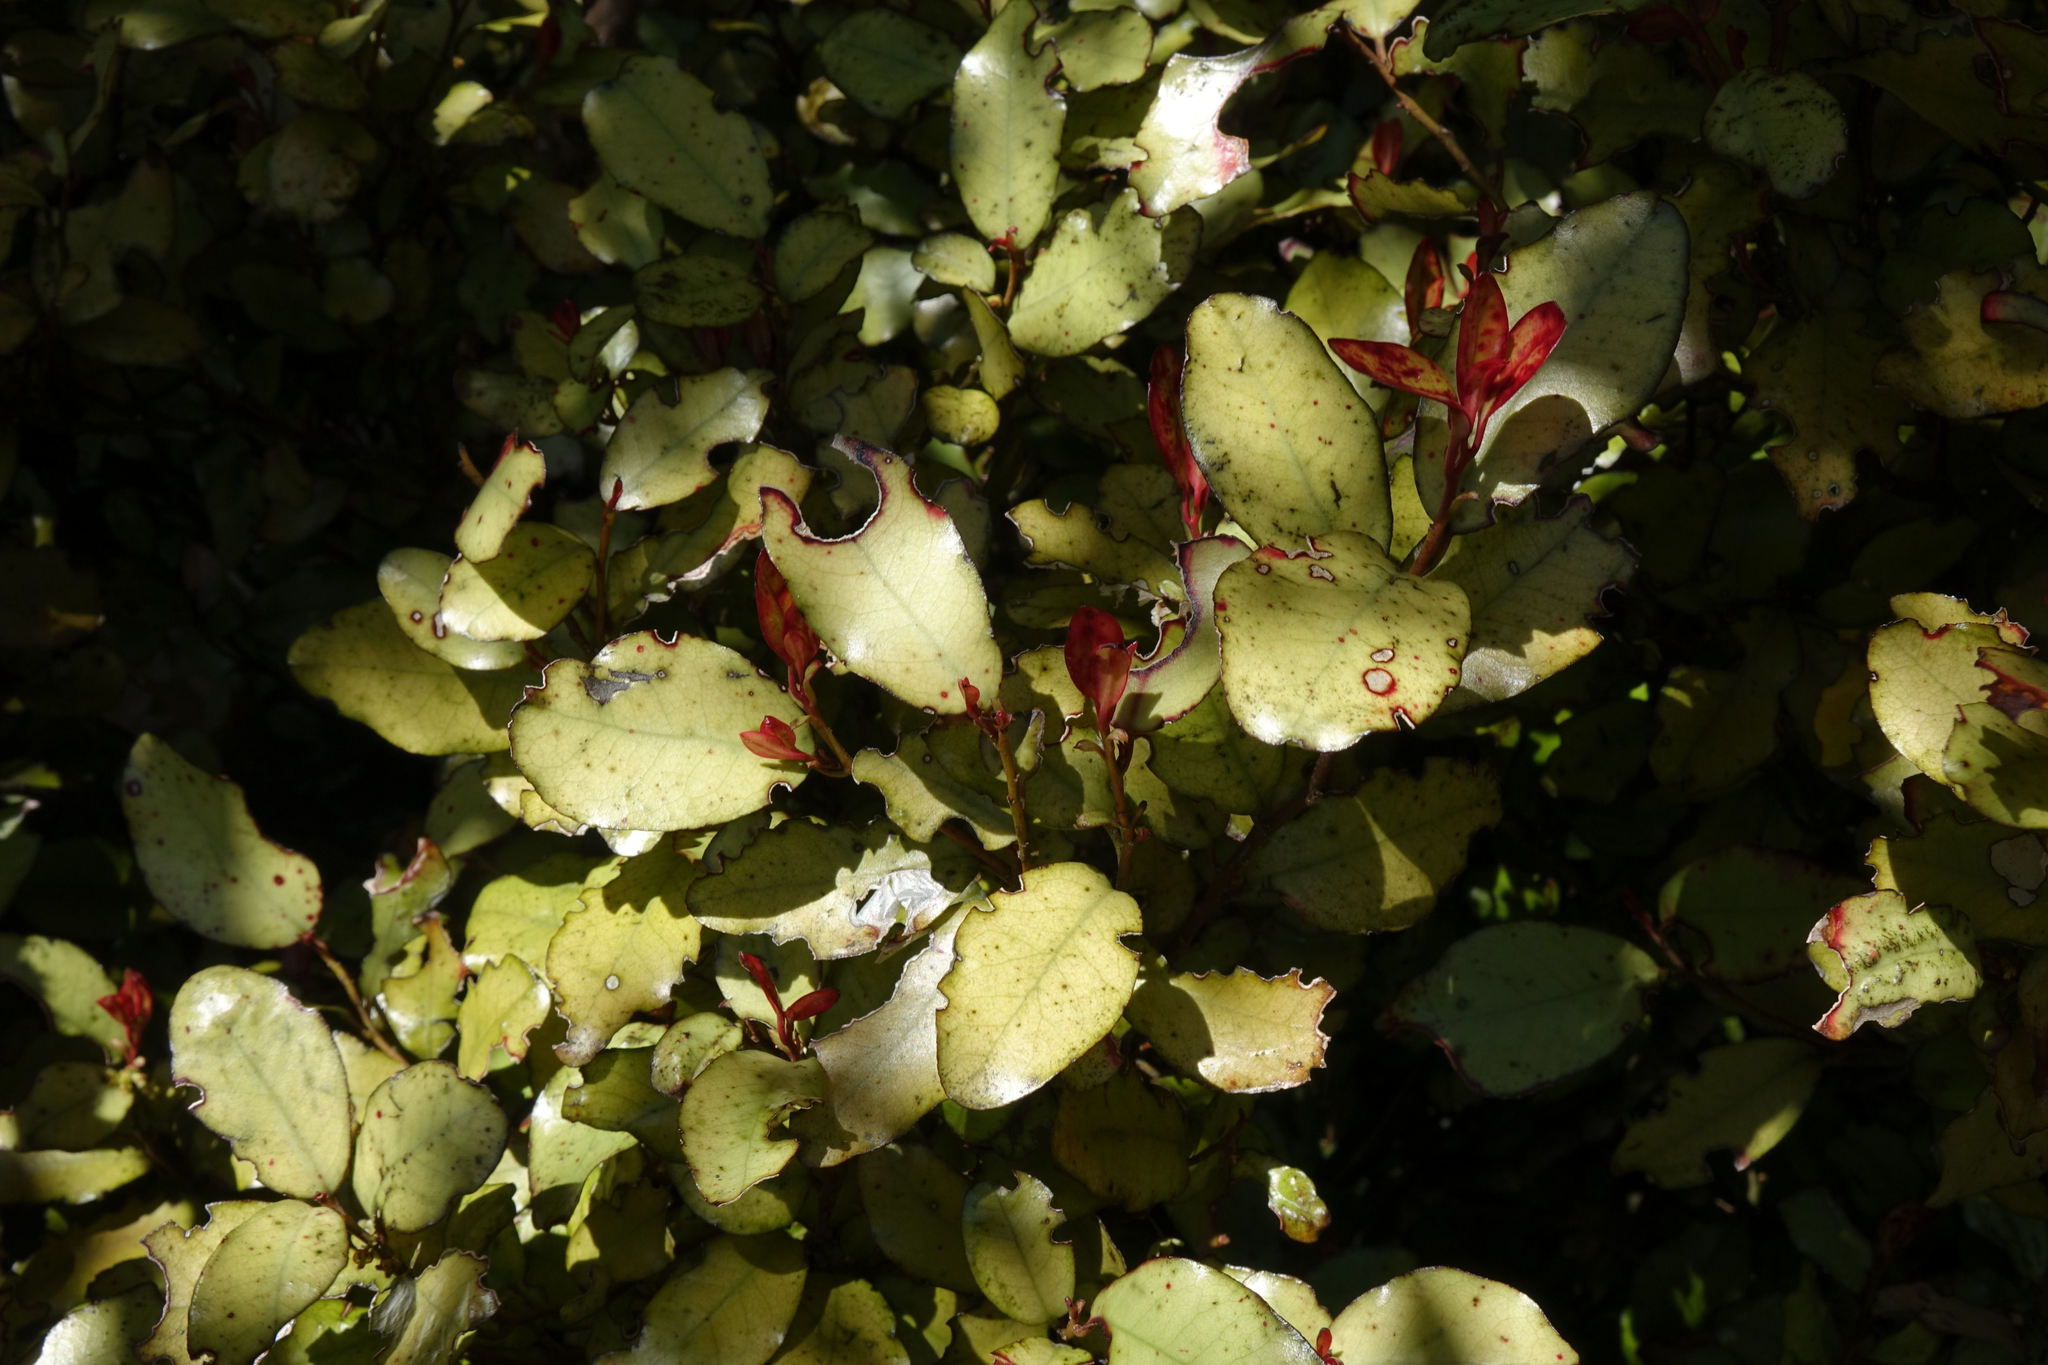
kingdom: Plantae
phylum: Tracheophyta
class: Magnoliopsida
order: Canellales
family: Winteraceae
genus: Pseudowintera
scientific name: Pseudowintera colorata
